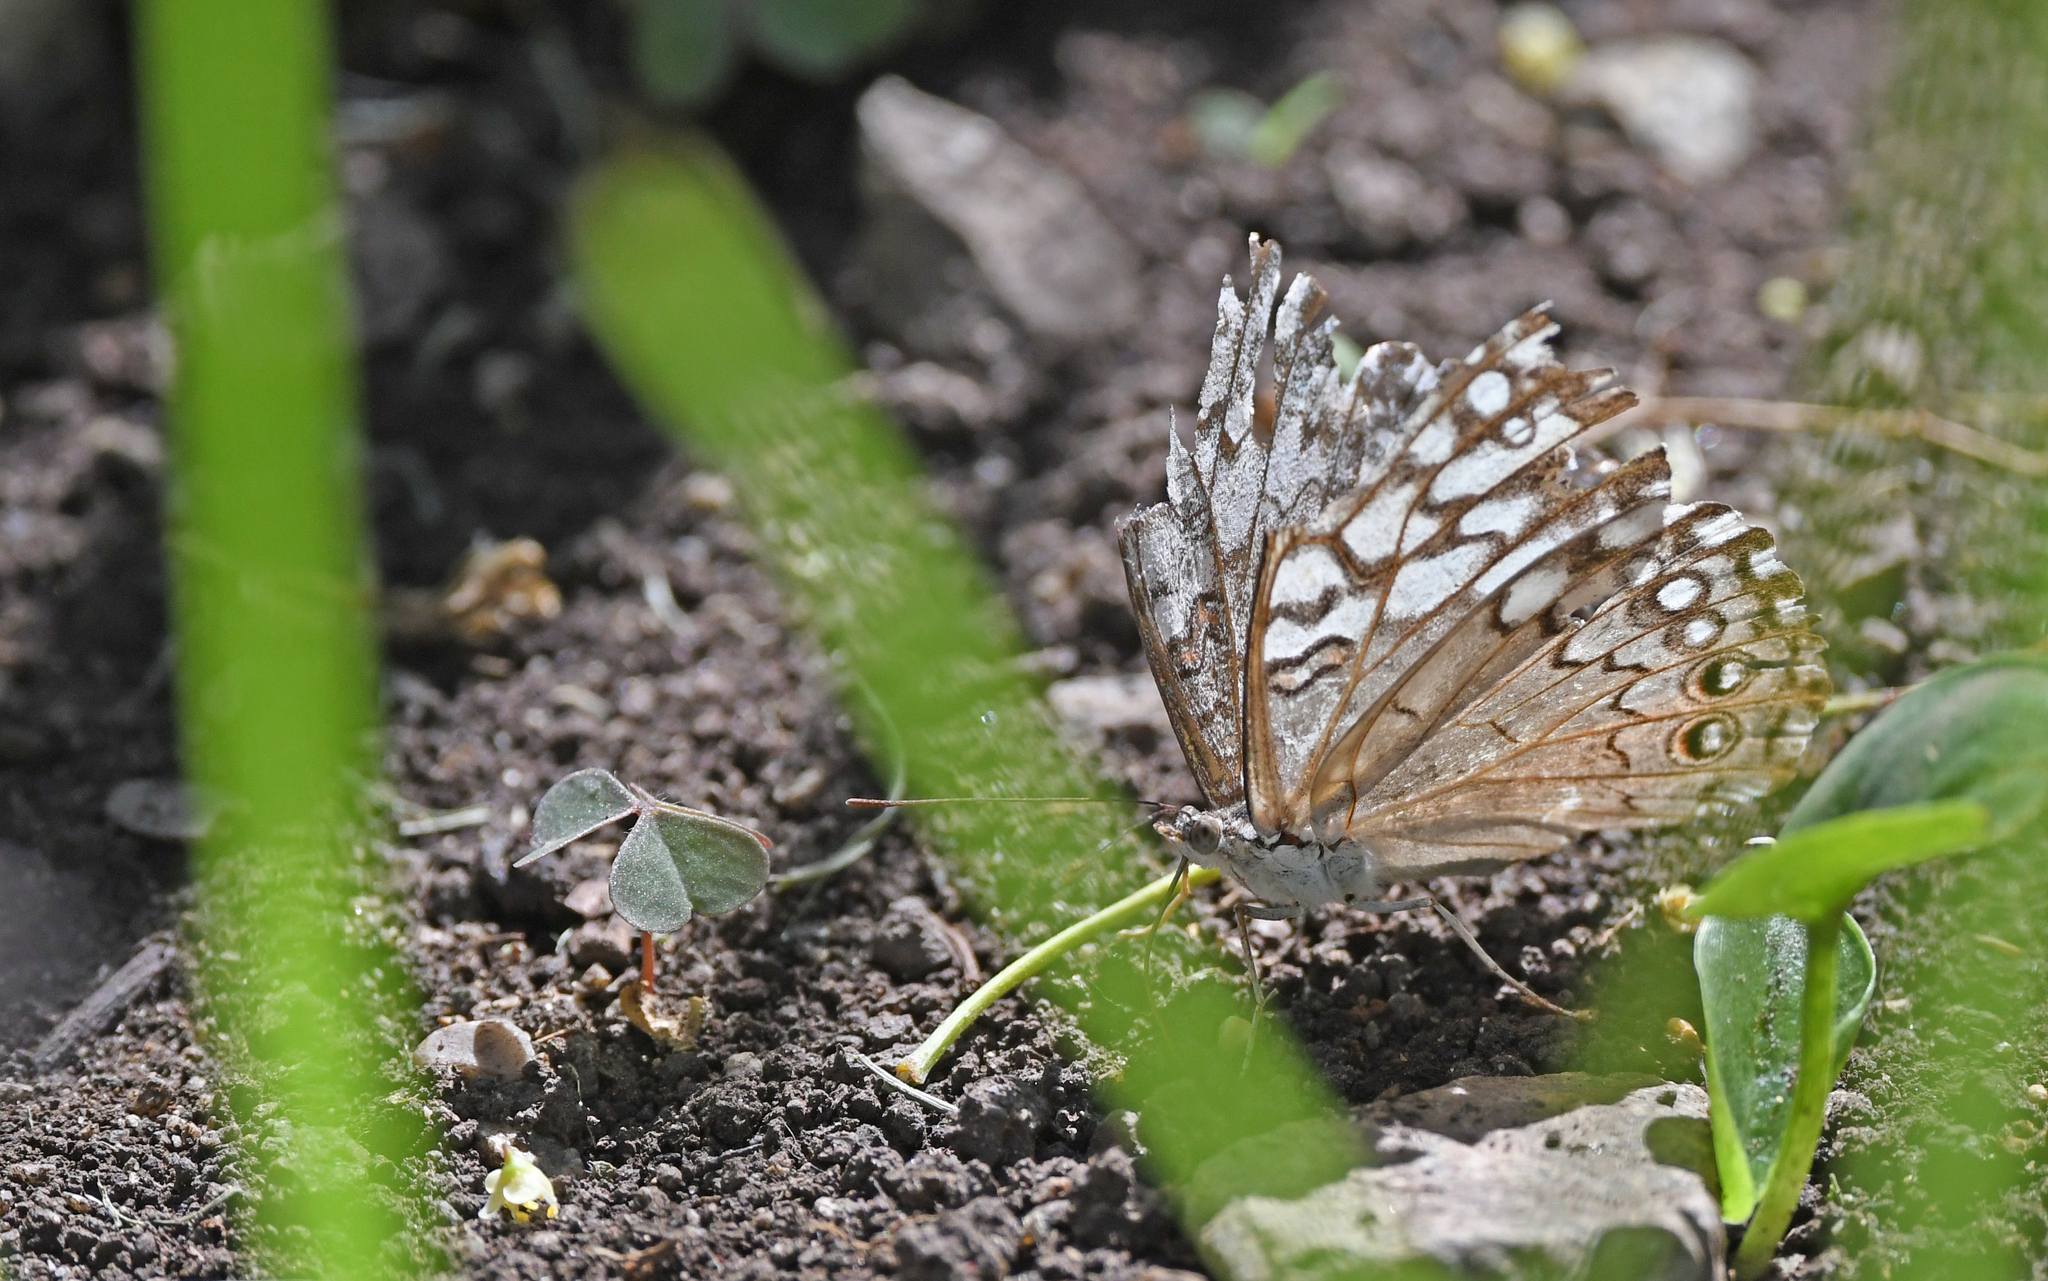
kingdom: Animalia
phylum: Arthropoda
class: Insecta
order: Lepidoptera
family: Nymphalidae
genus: Hamadryas
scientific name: Hamadryas februa
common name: Gray cracker
